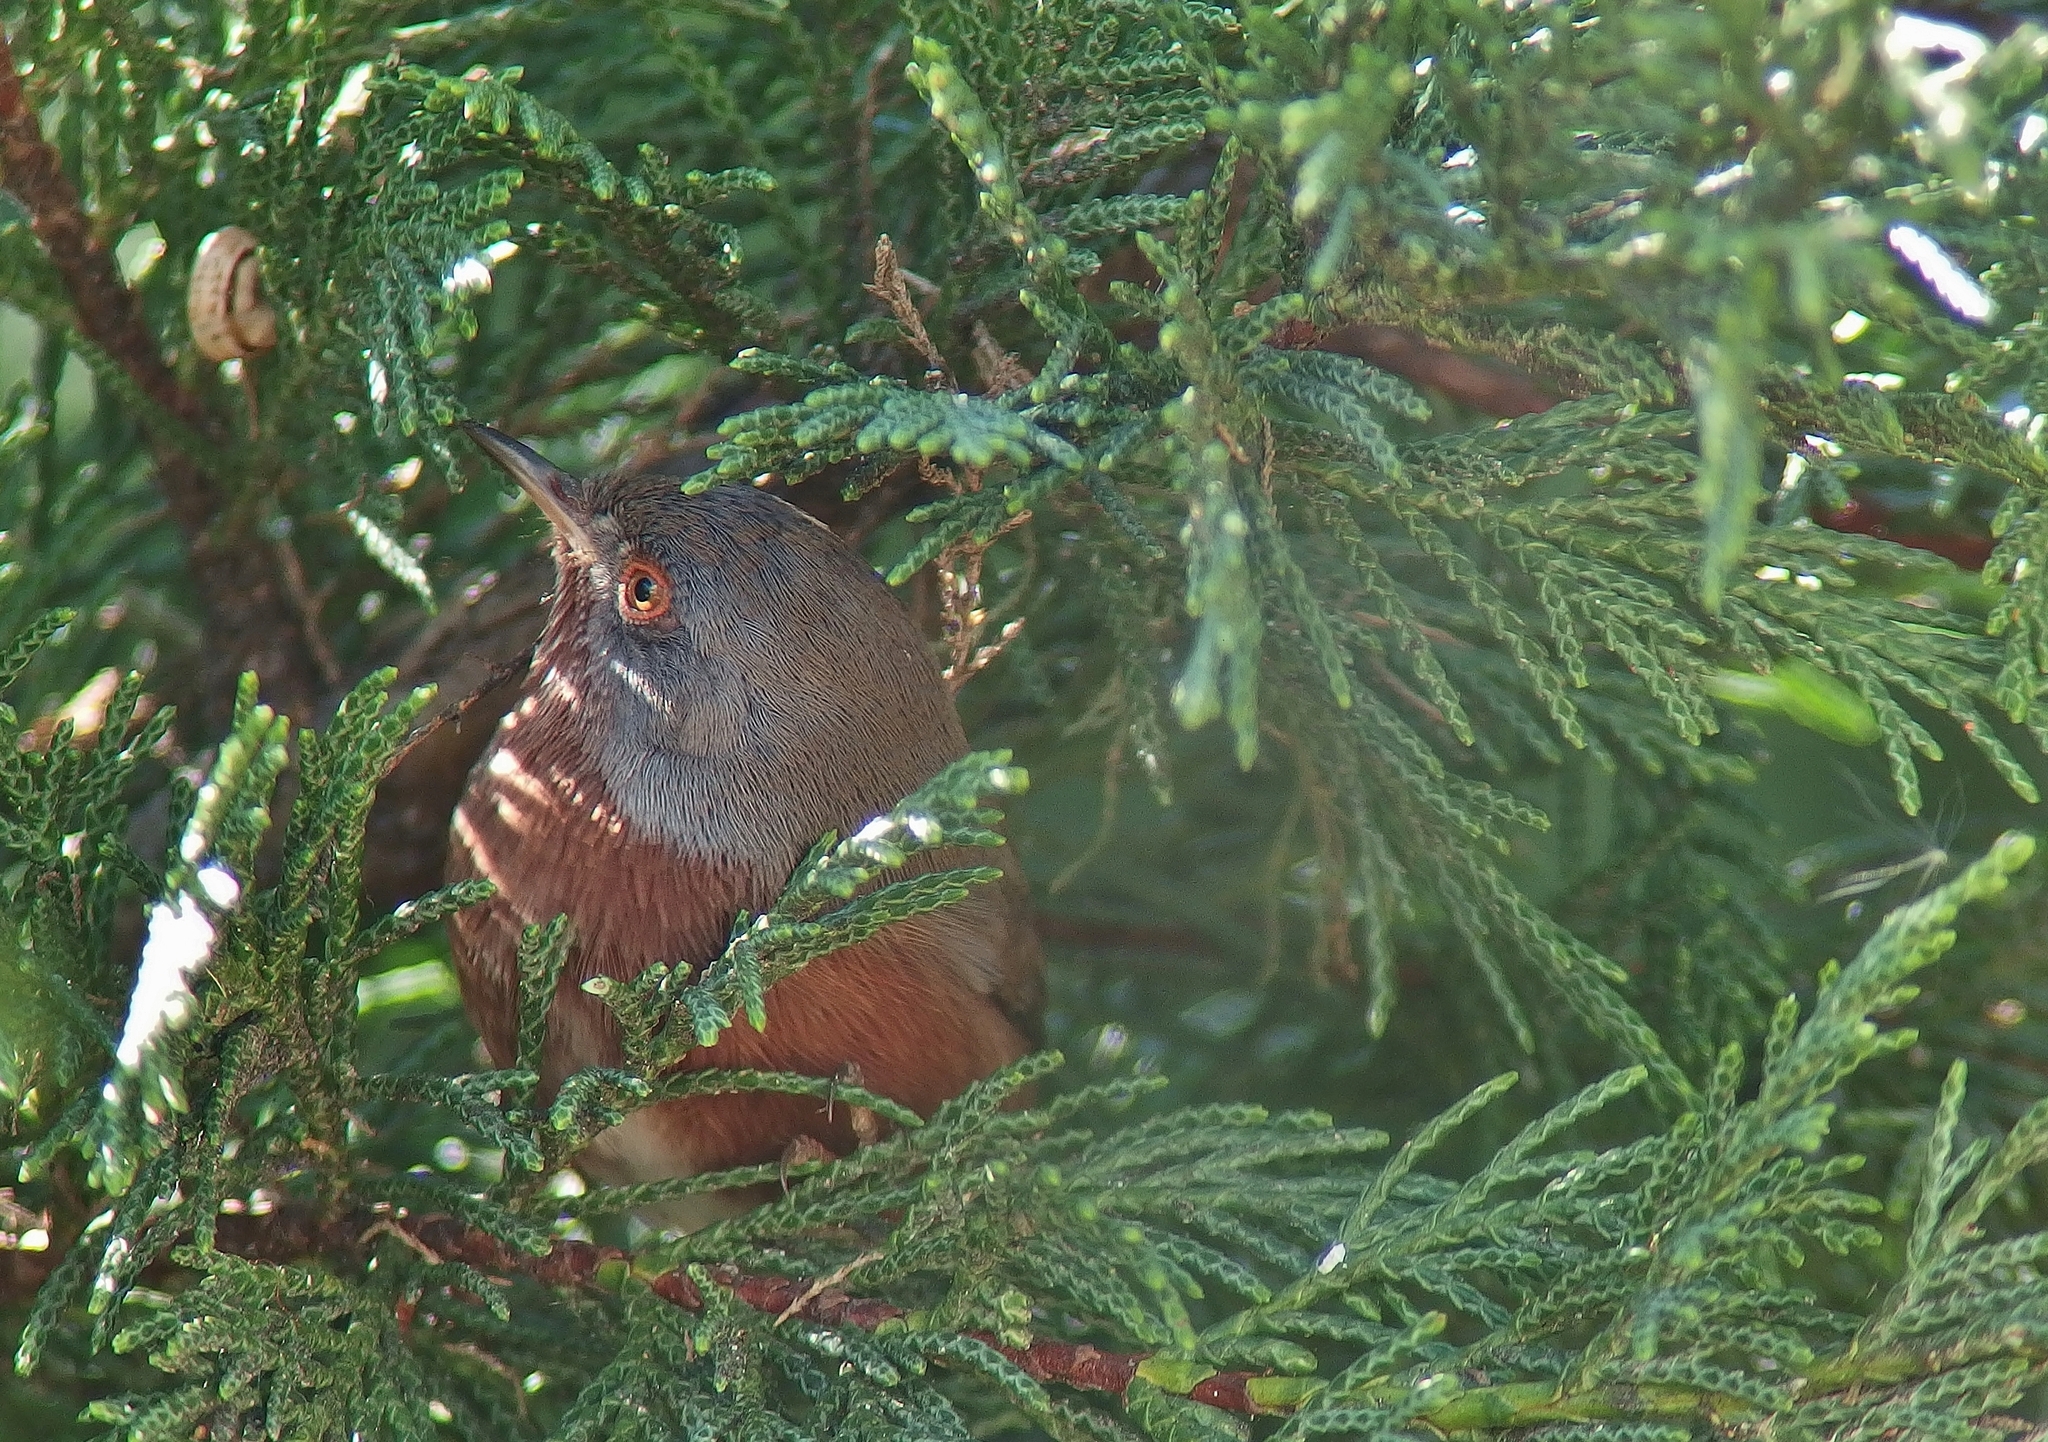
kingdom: Animalia
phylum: Chordata
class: Aves
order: Passeriformes
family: Sylviidae
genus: Sylvia
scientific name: Sylvia undata
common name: Dartford warbler
